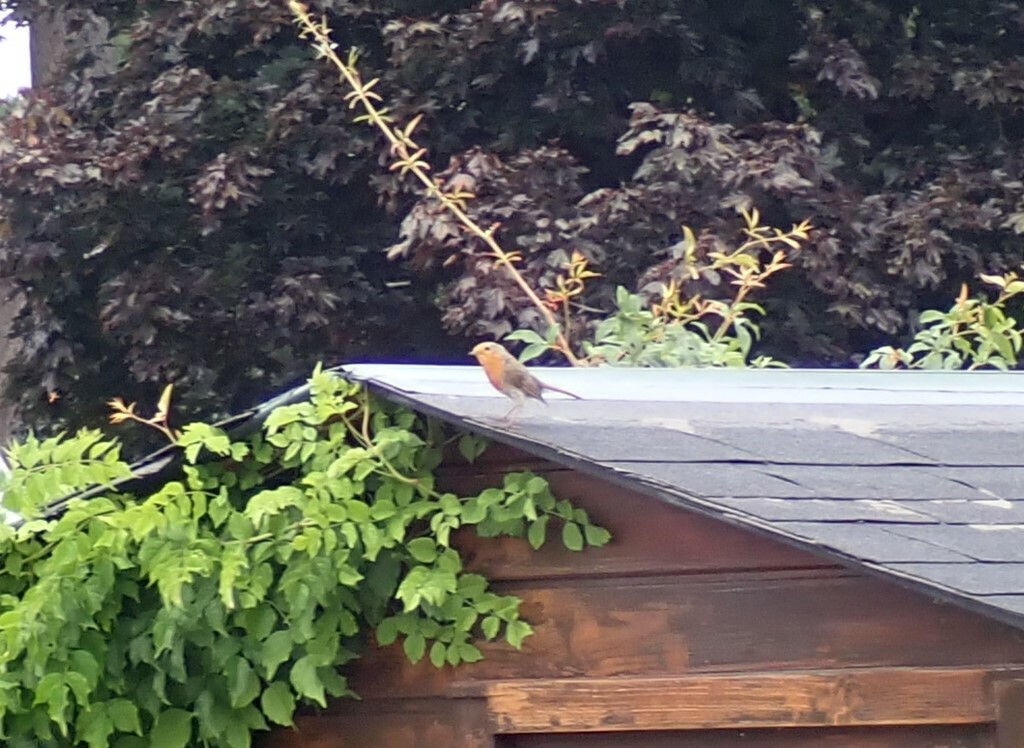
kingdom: Animalia
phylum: Chordata
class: Aves
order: Passeriformes
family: Muscicapidae
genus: Erithacus
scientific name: Erithacus rubecula
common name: European robin
